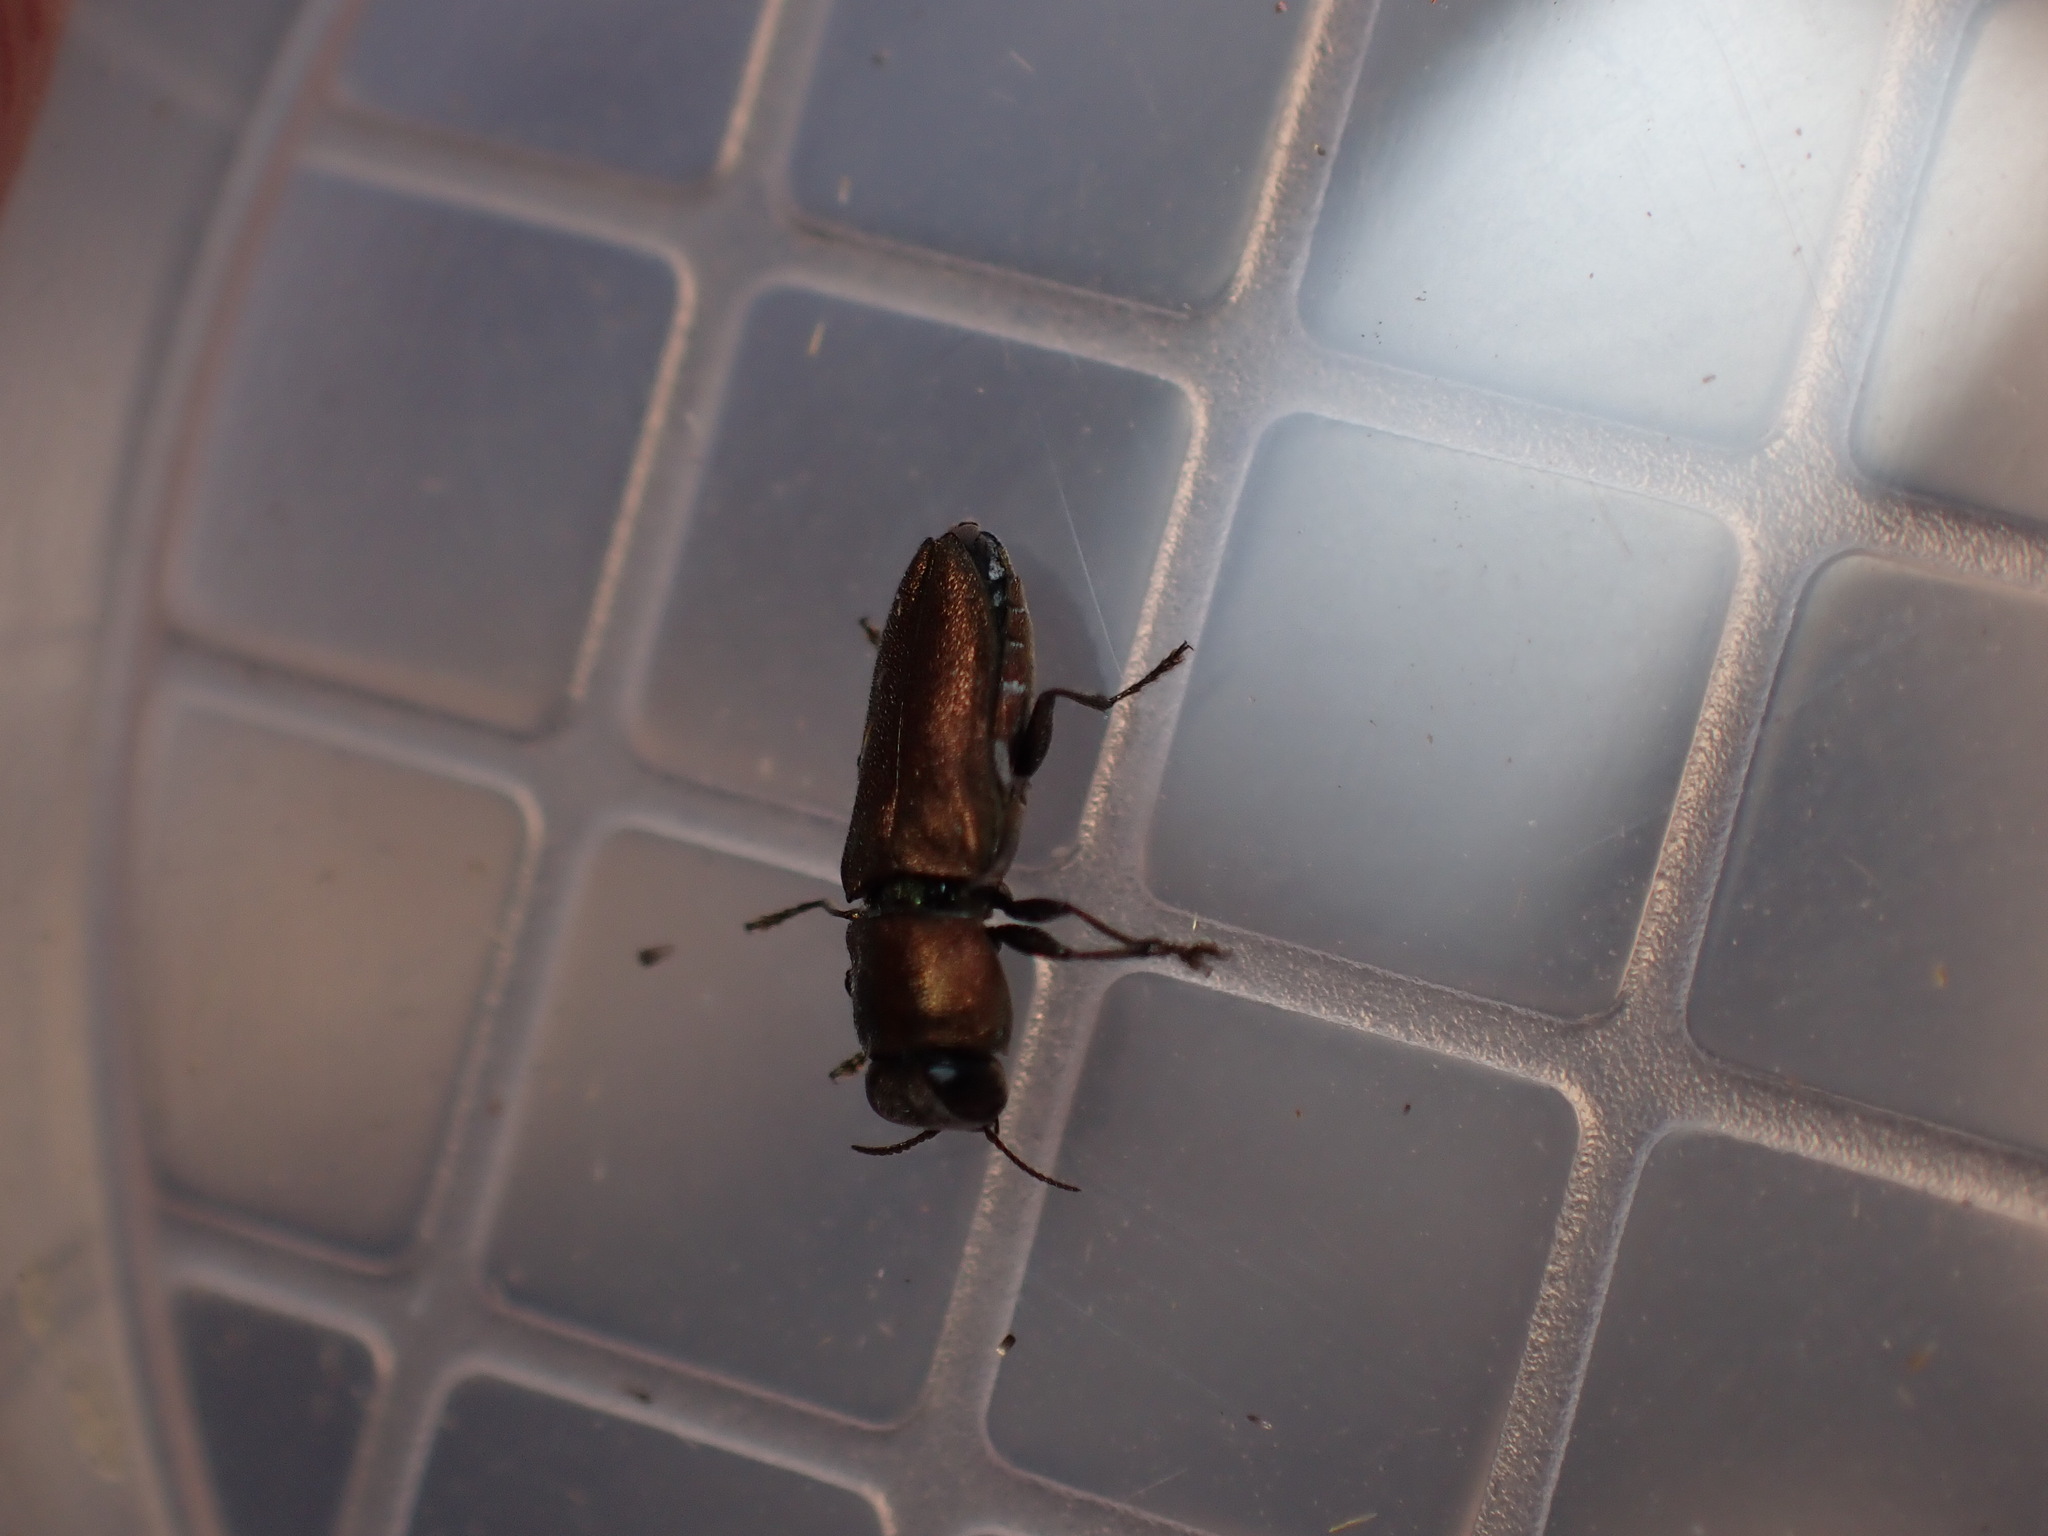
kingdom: Animalia
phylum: Arthropoda
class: Insecta
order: Coleoptera
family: Buprestidae
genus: Anthaxia
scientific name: Anthaxia umbellatarum
